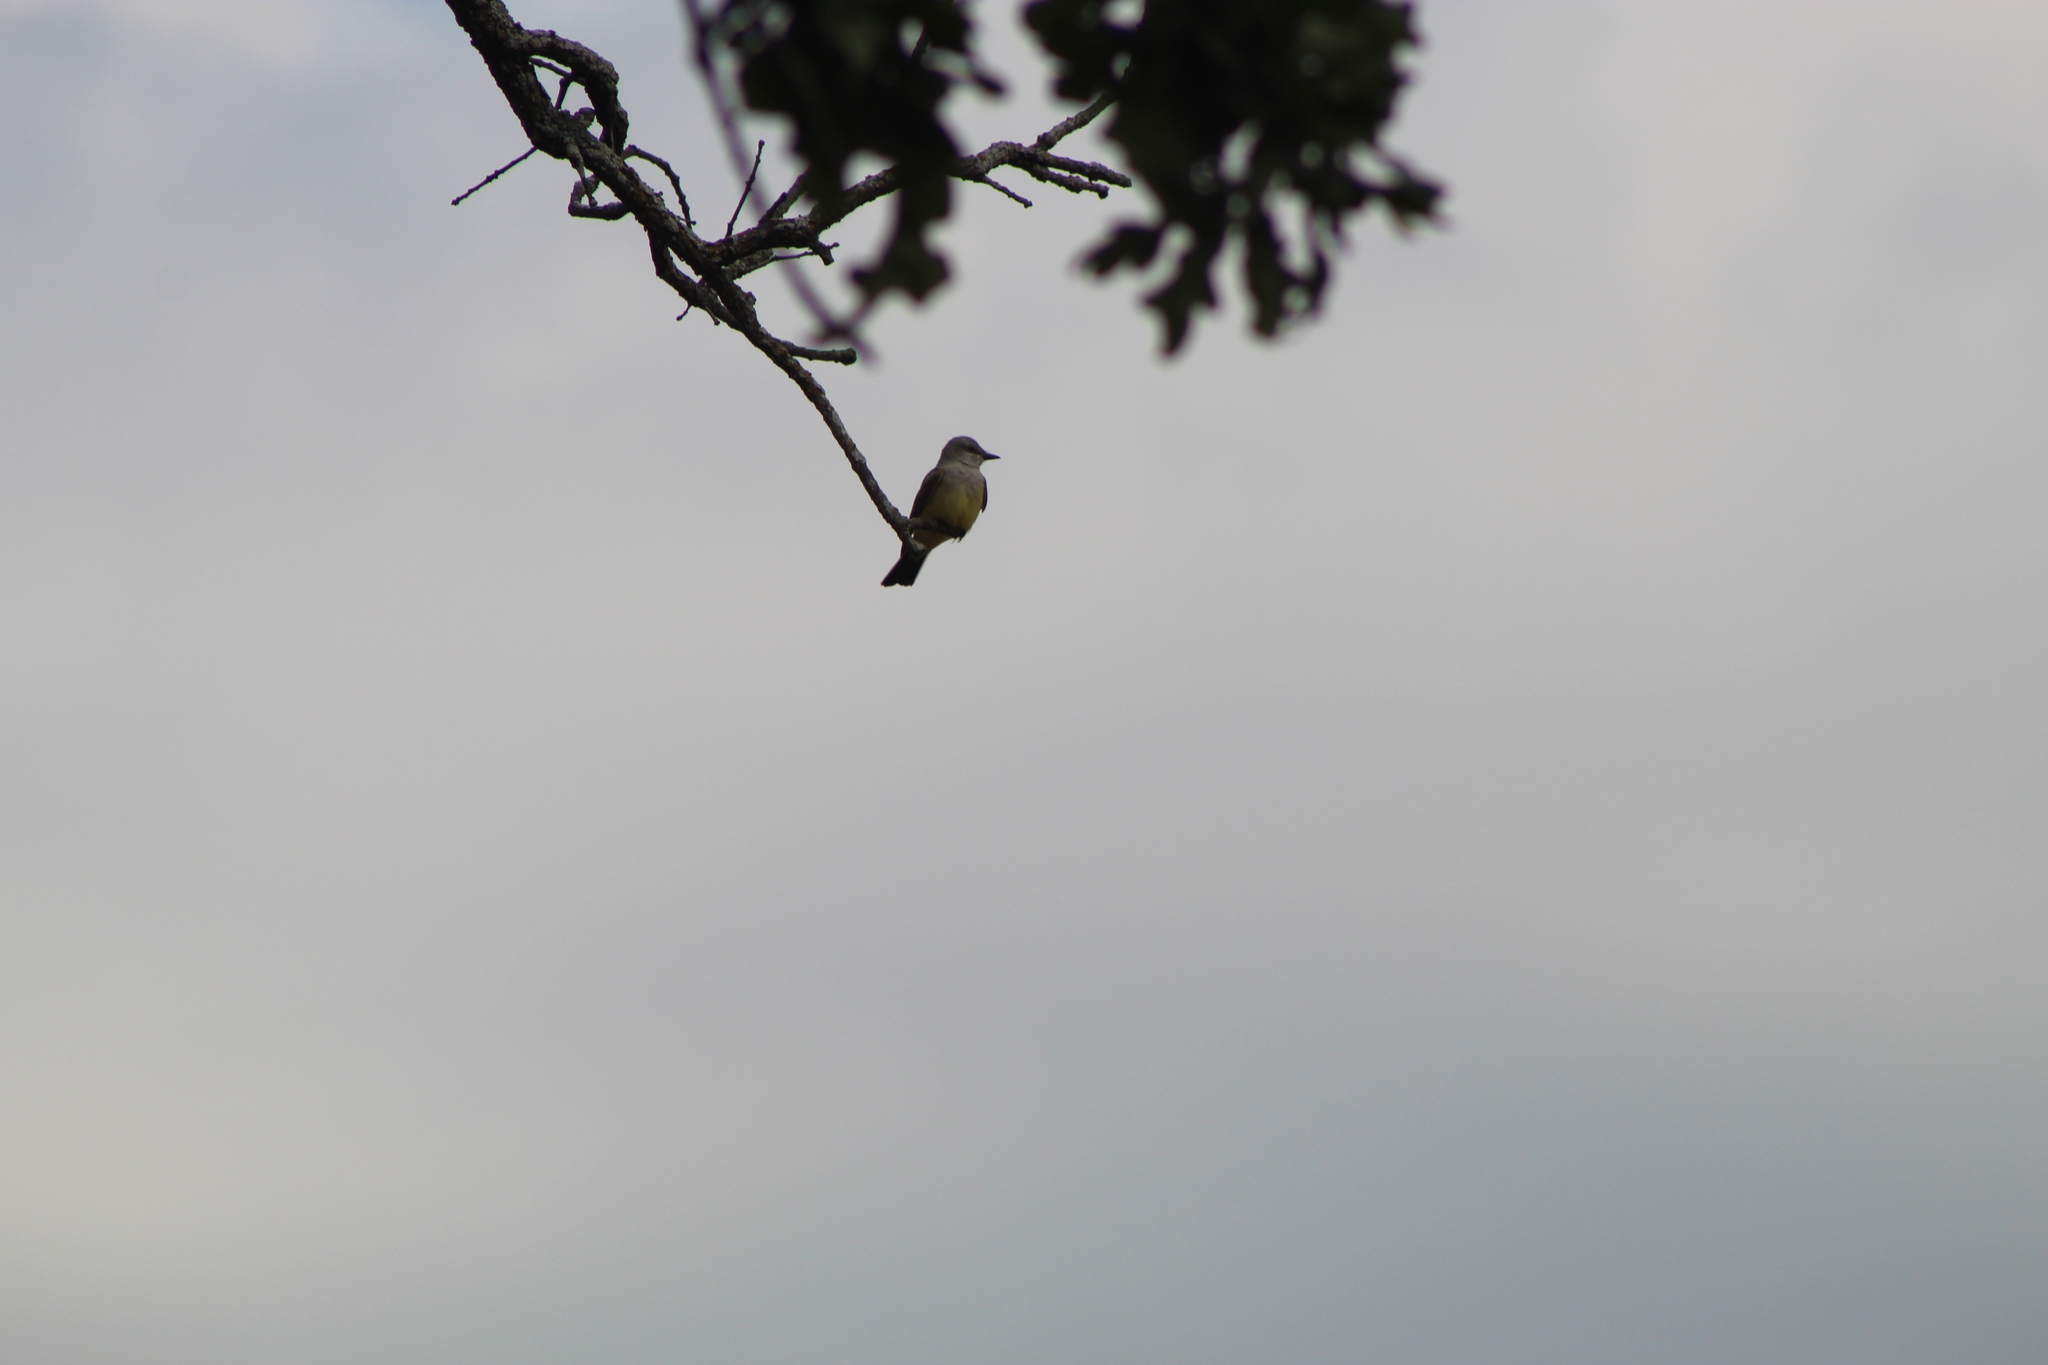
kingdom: Animalia
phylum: Chordata
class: Aves
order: Passeriformes
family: Tyrannidae
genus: Tyrannus
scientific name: Tyrannus verticalis
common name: Western kingbird
